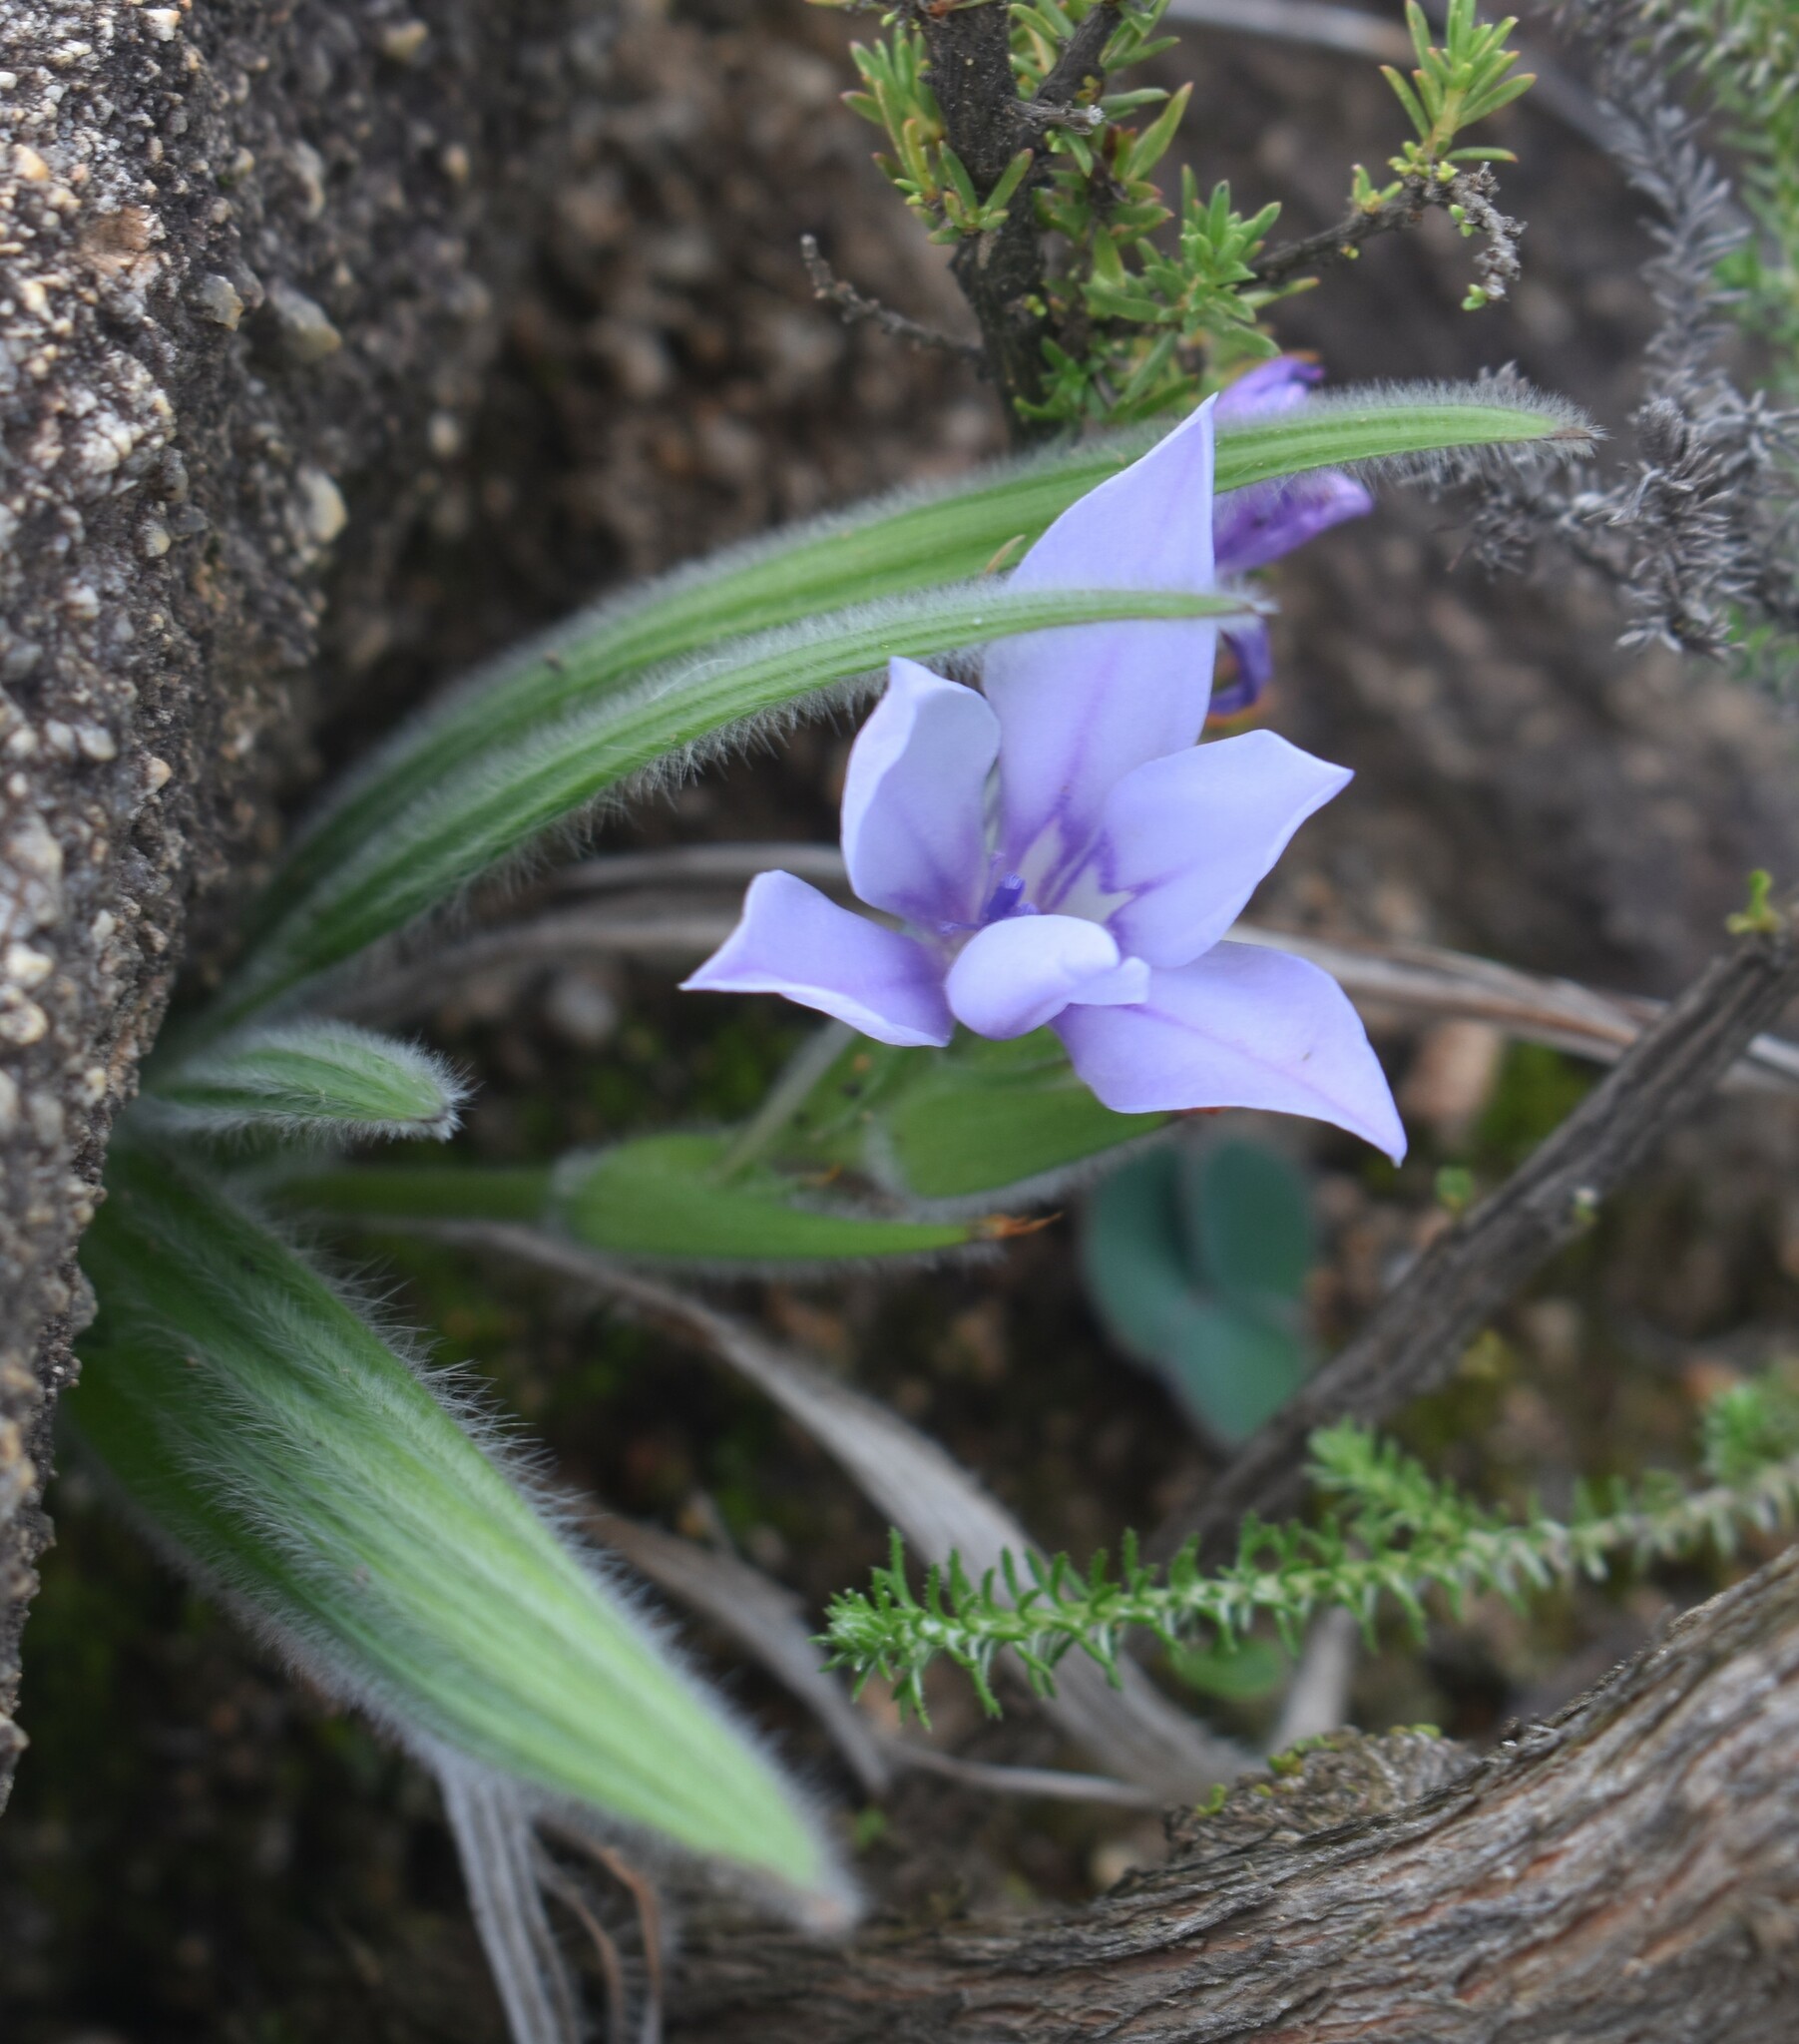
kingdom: Plantae
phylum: Tracheophyta
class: Liliopsida
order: Asparagales
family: Iridaceae
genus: Babiana
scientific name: Babiana villosula
